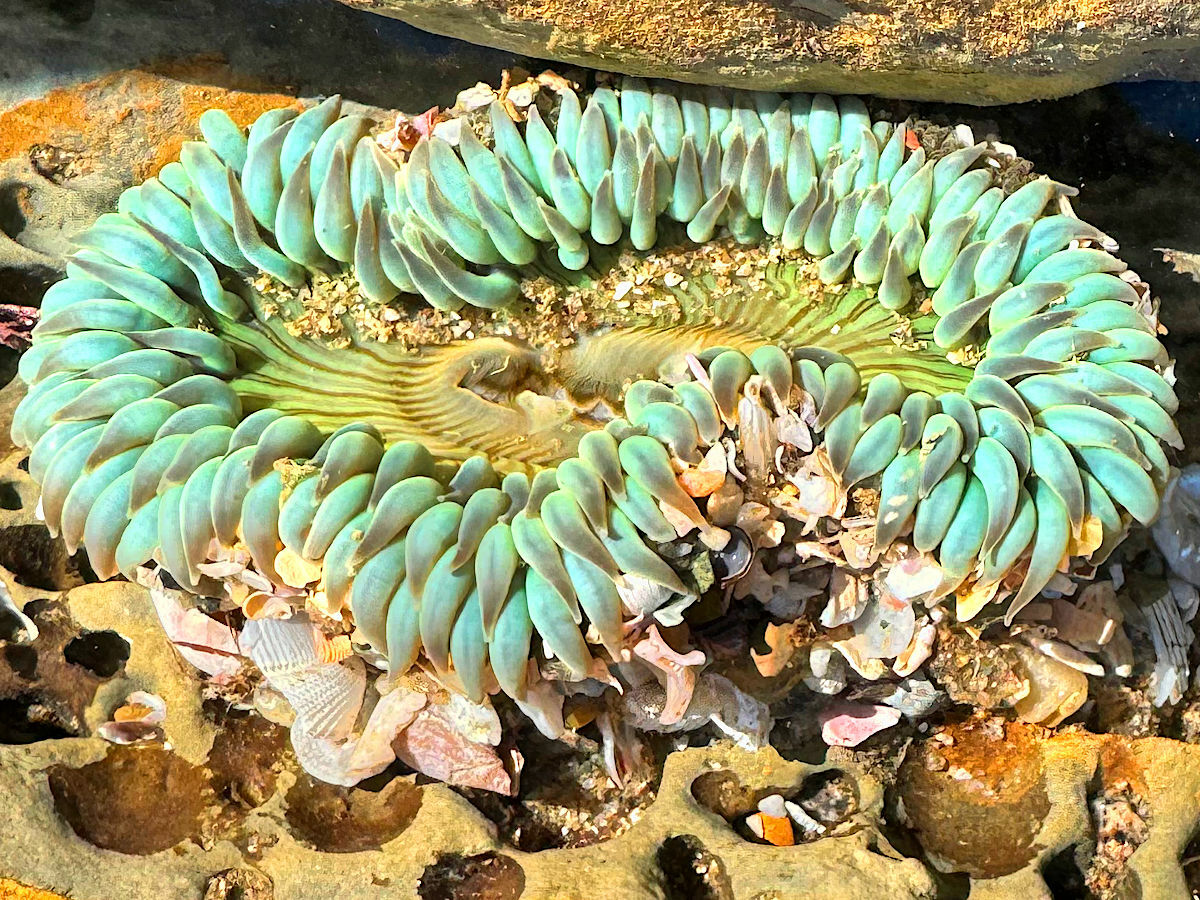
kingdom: Animalia
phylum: Cnidaria
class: Anthozoa
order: Actiniaria
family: Actiniidae
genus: Anthopleura
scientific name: Anthopleura sola
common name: Sun anemone
